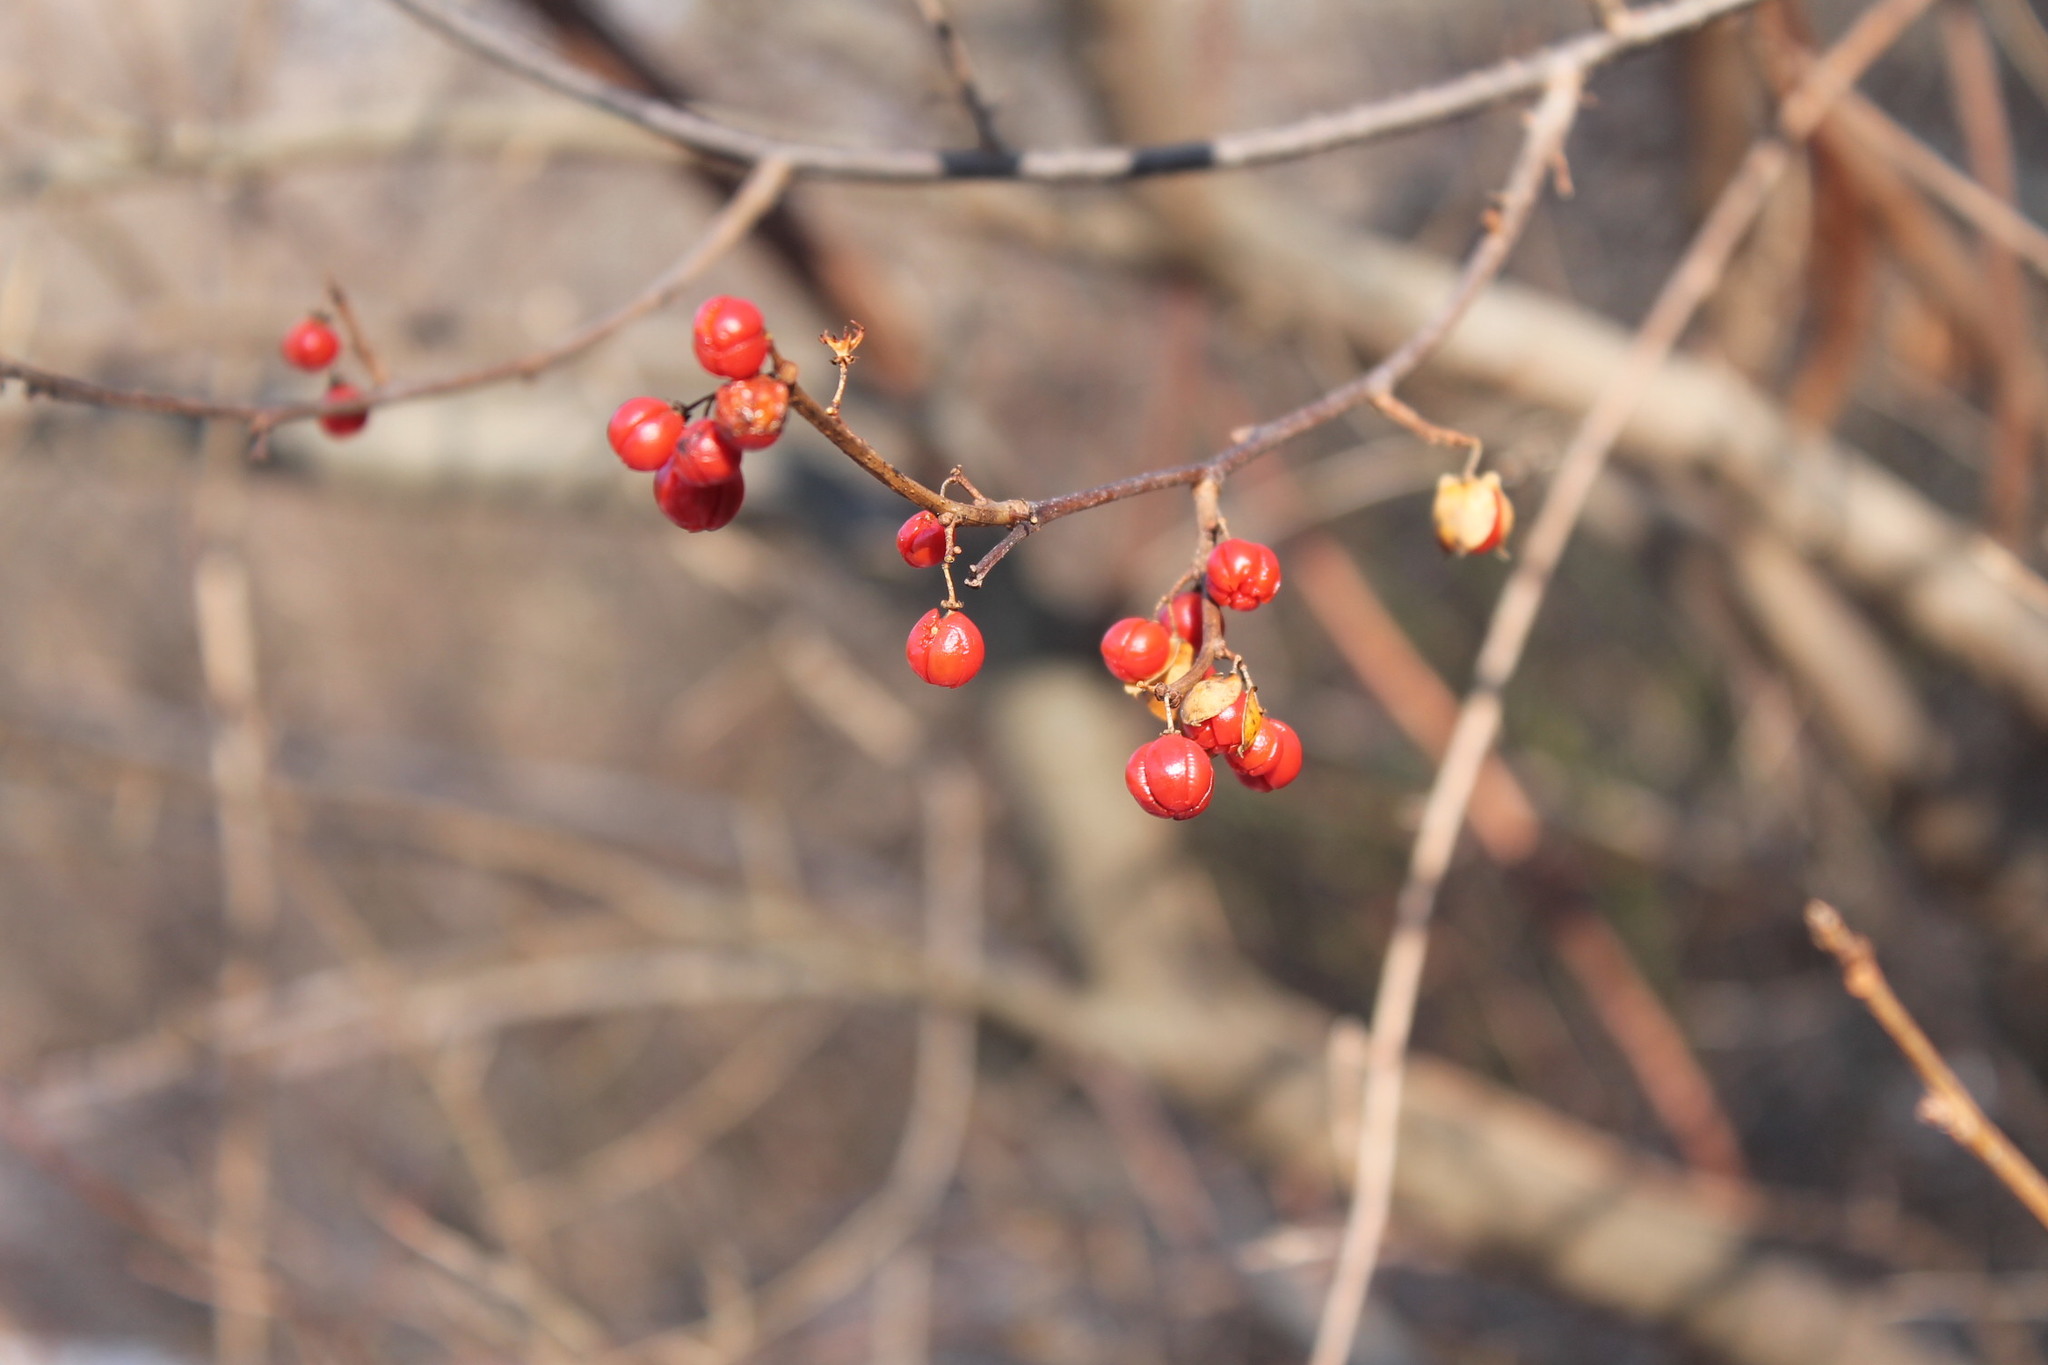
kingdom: Plantae
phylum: Tracheophyta
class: Magnoliopsida
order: Celastrales
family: Celastraceae
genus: Celastrus
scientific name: Celastrus orbiculatus
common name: Oriental bittersweet
